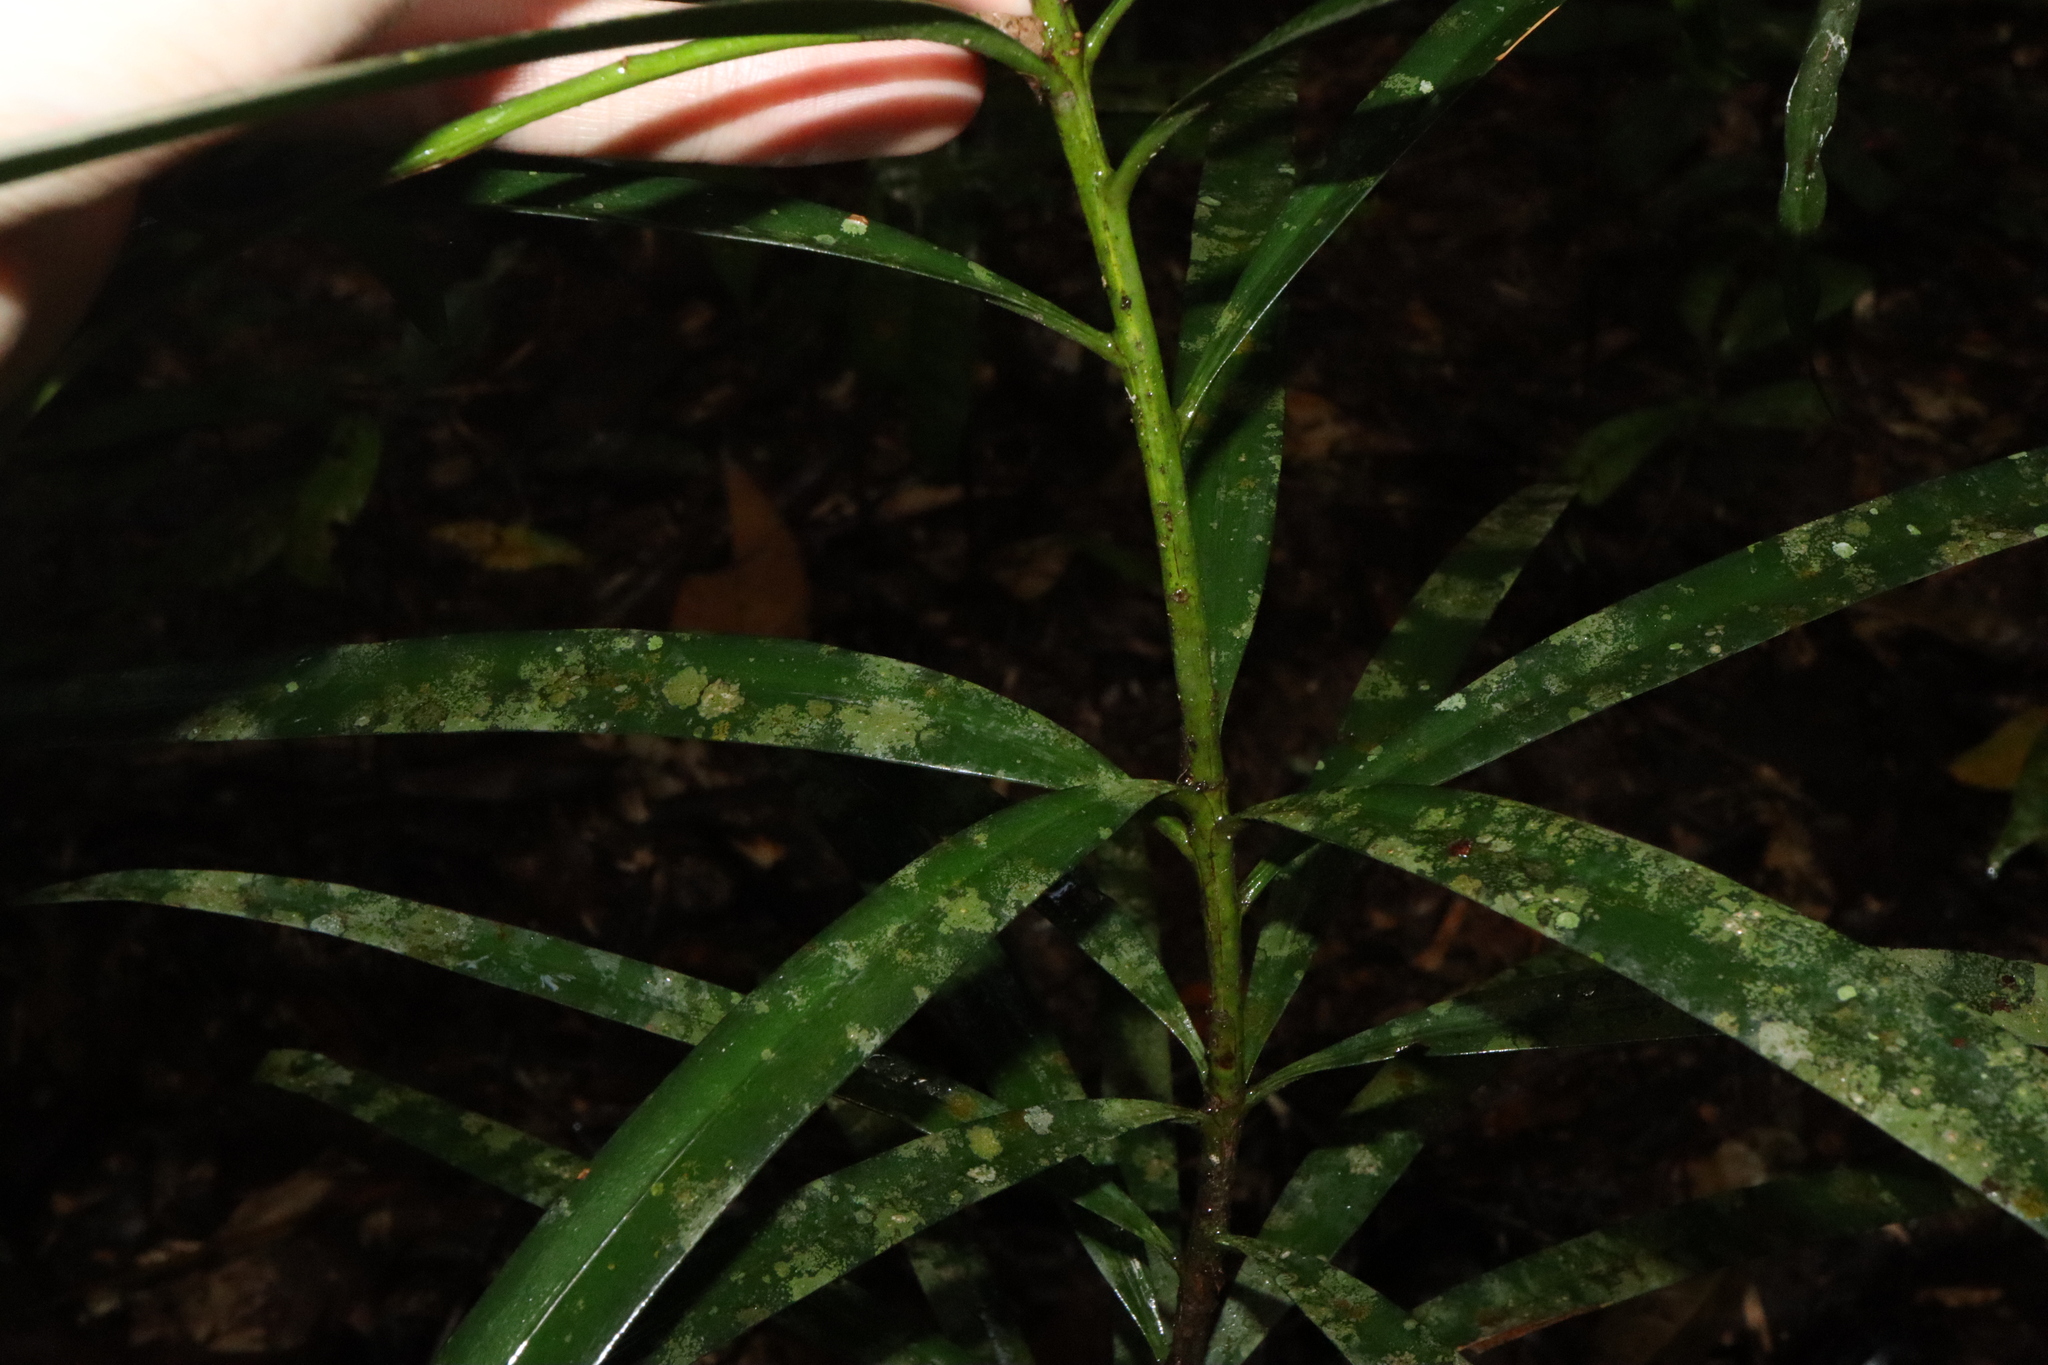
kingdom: Plantae
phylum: Tracheophyta
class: Pinopsida
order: Pinales
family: Podocarpaceae
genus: Podocarpus
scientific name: Podocarpus grayae
